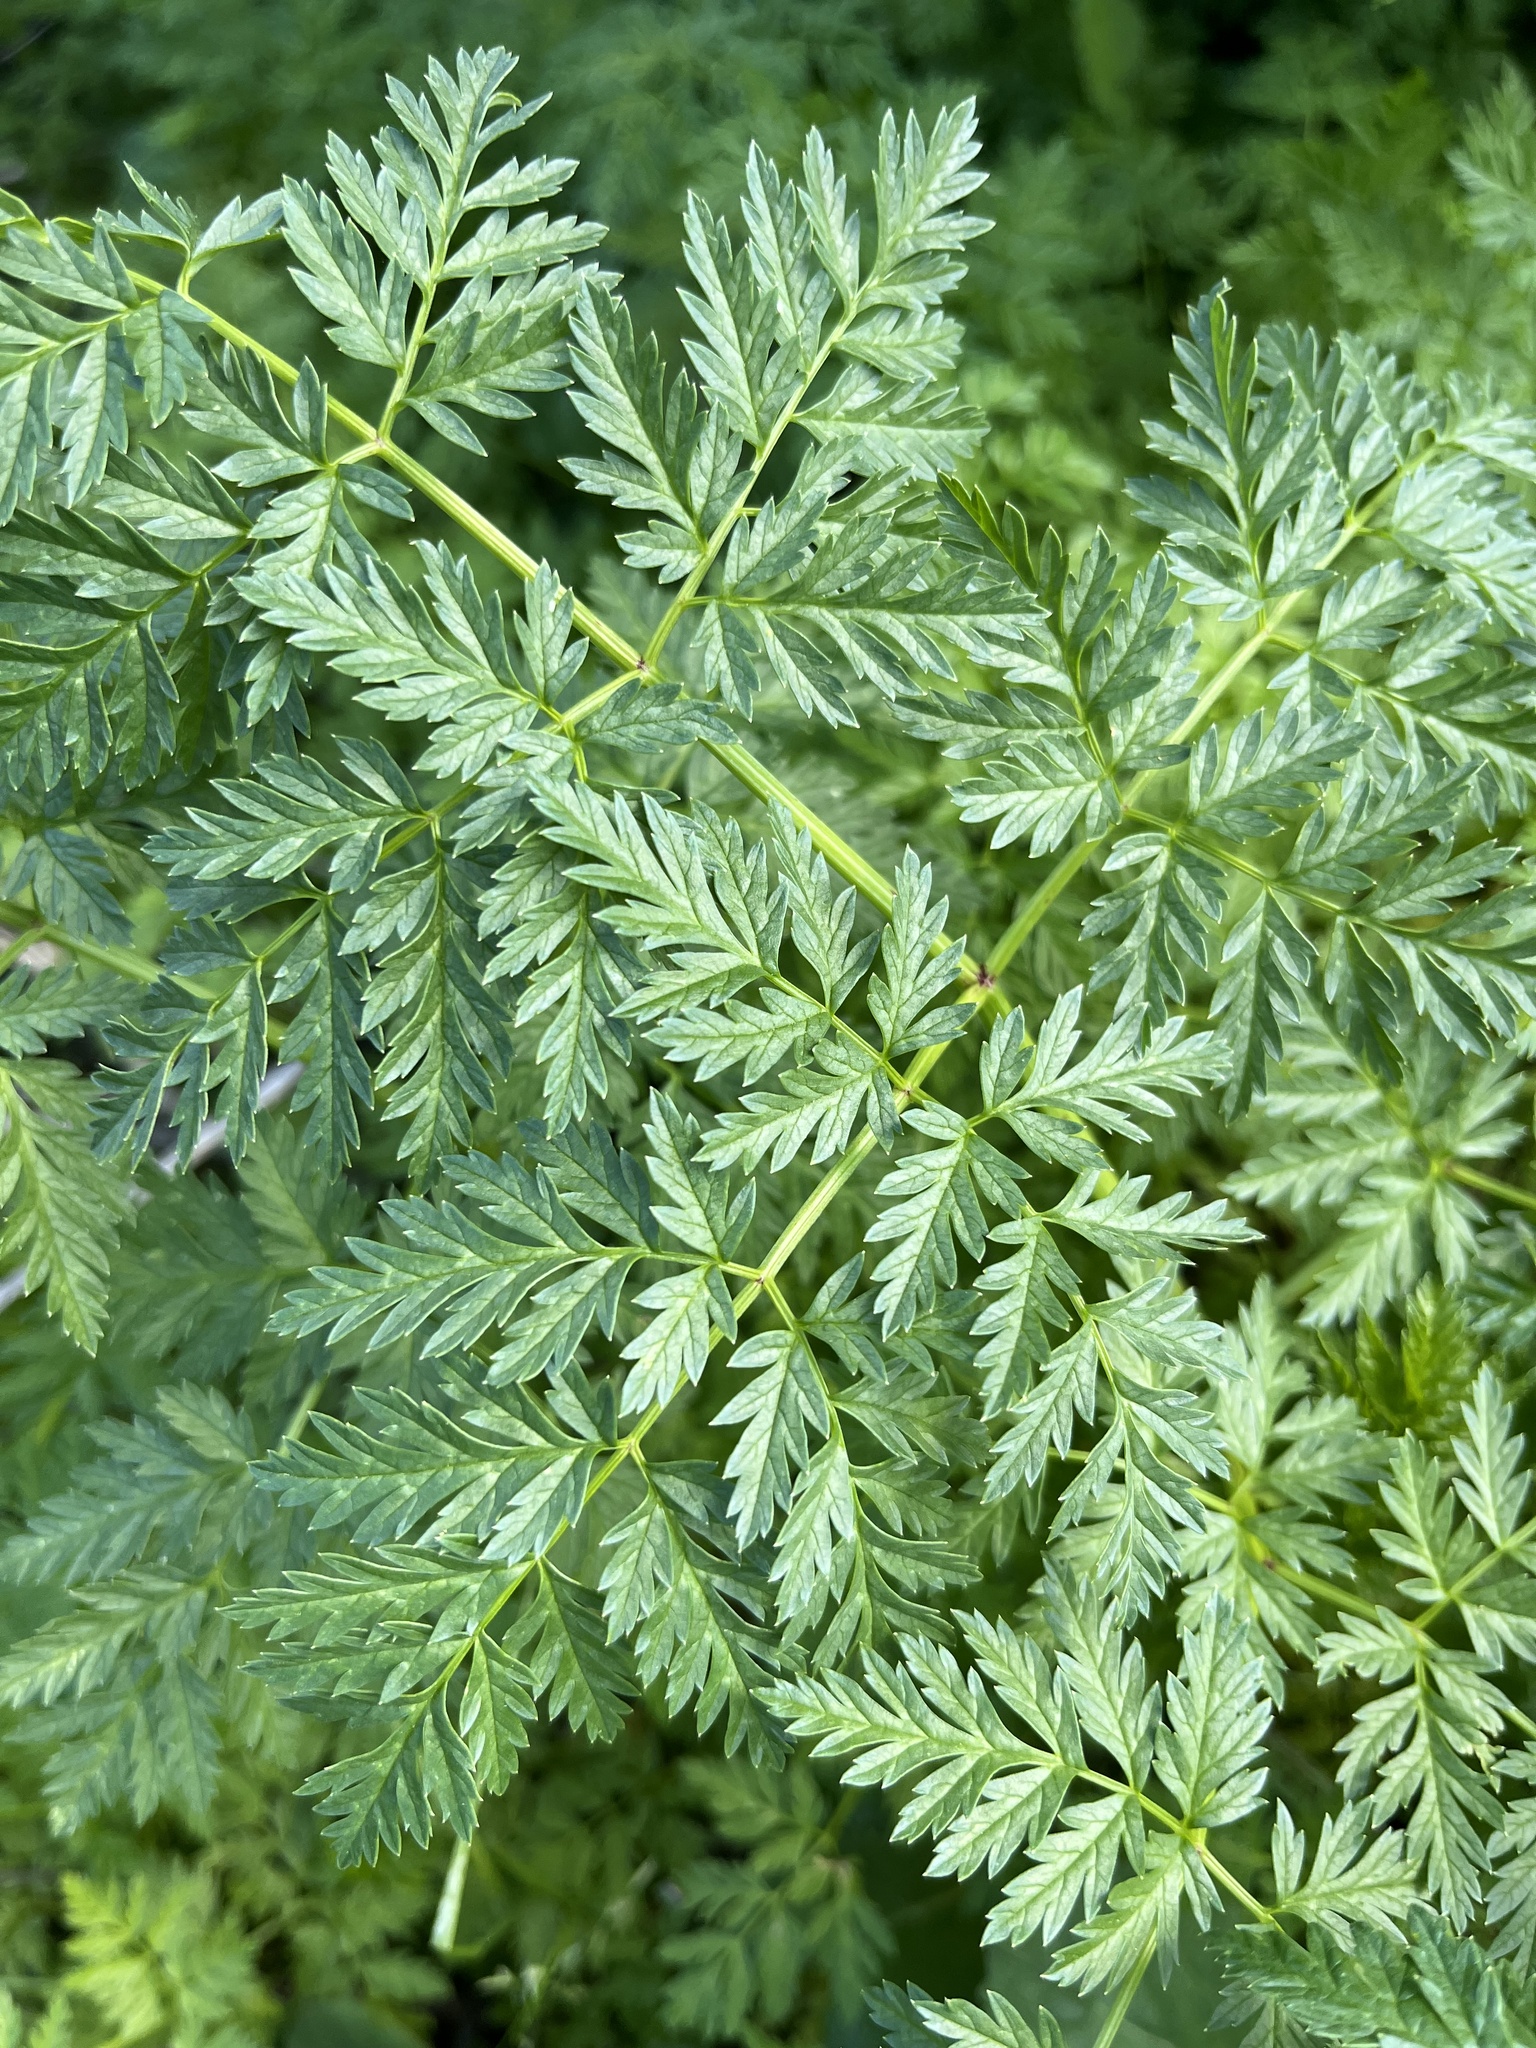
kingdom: Plantae
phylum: Tracheophyta
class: Magnoliopsida
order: Apiales
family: Apiaceae
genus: Conium
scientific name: Conium maculatum
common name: Hemlock
